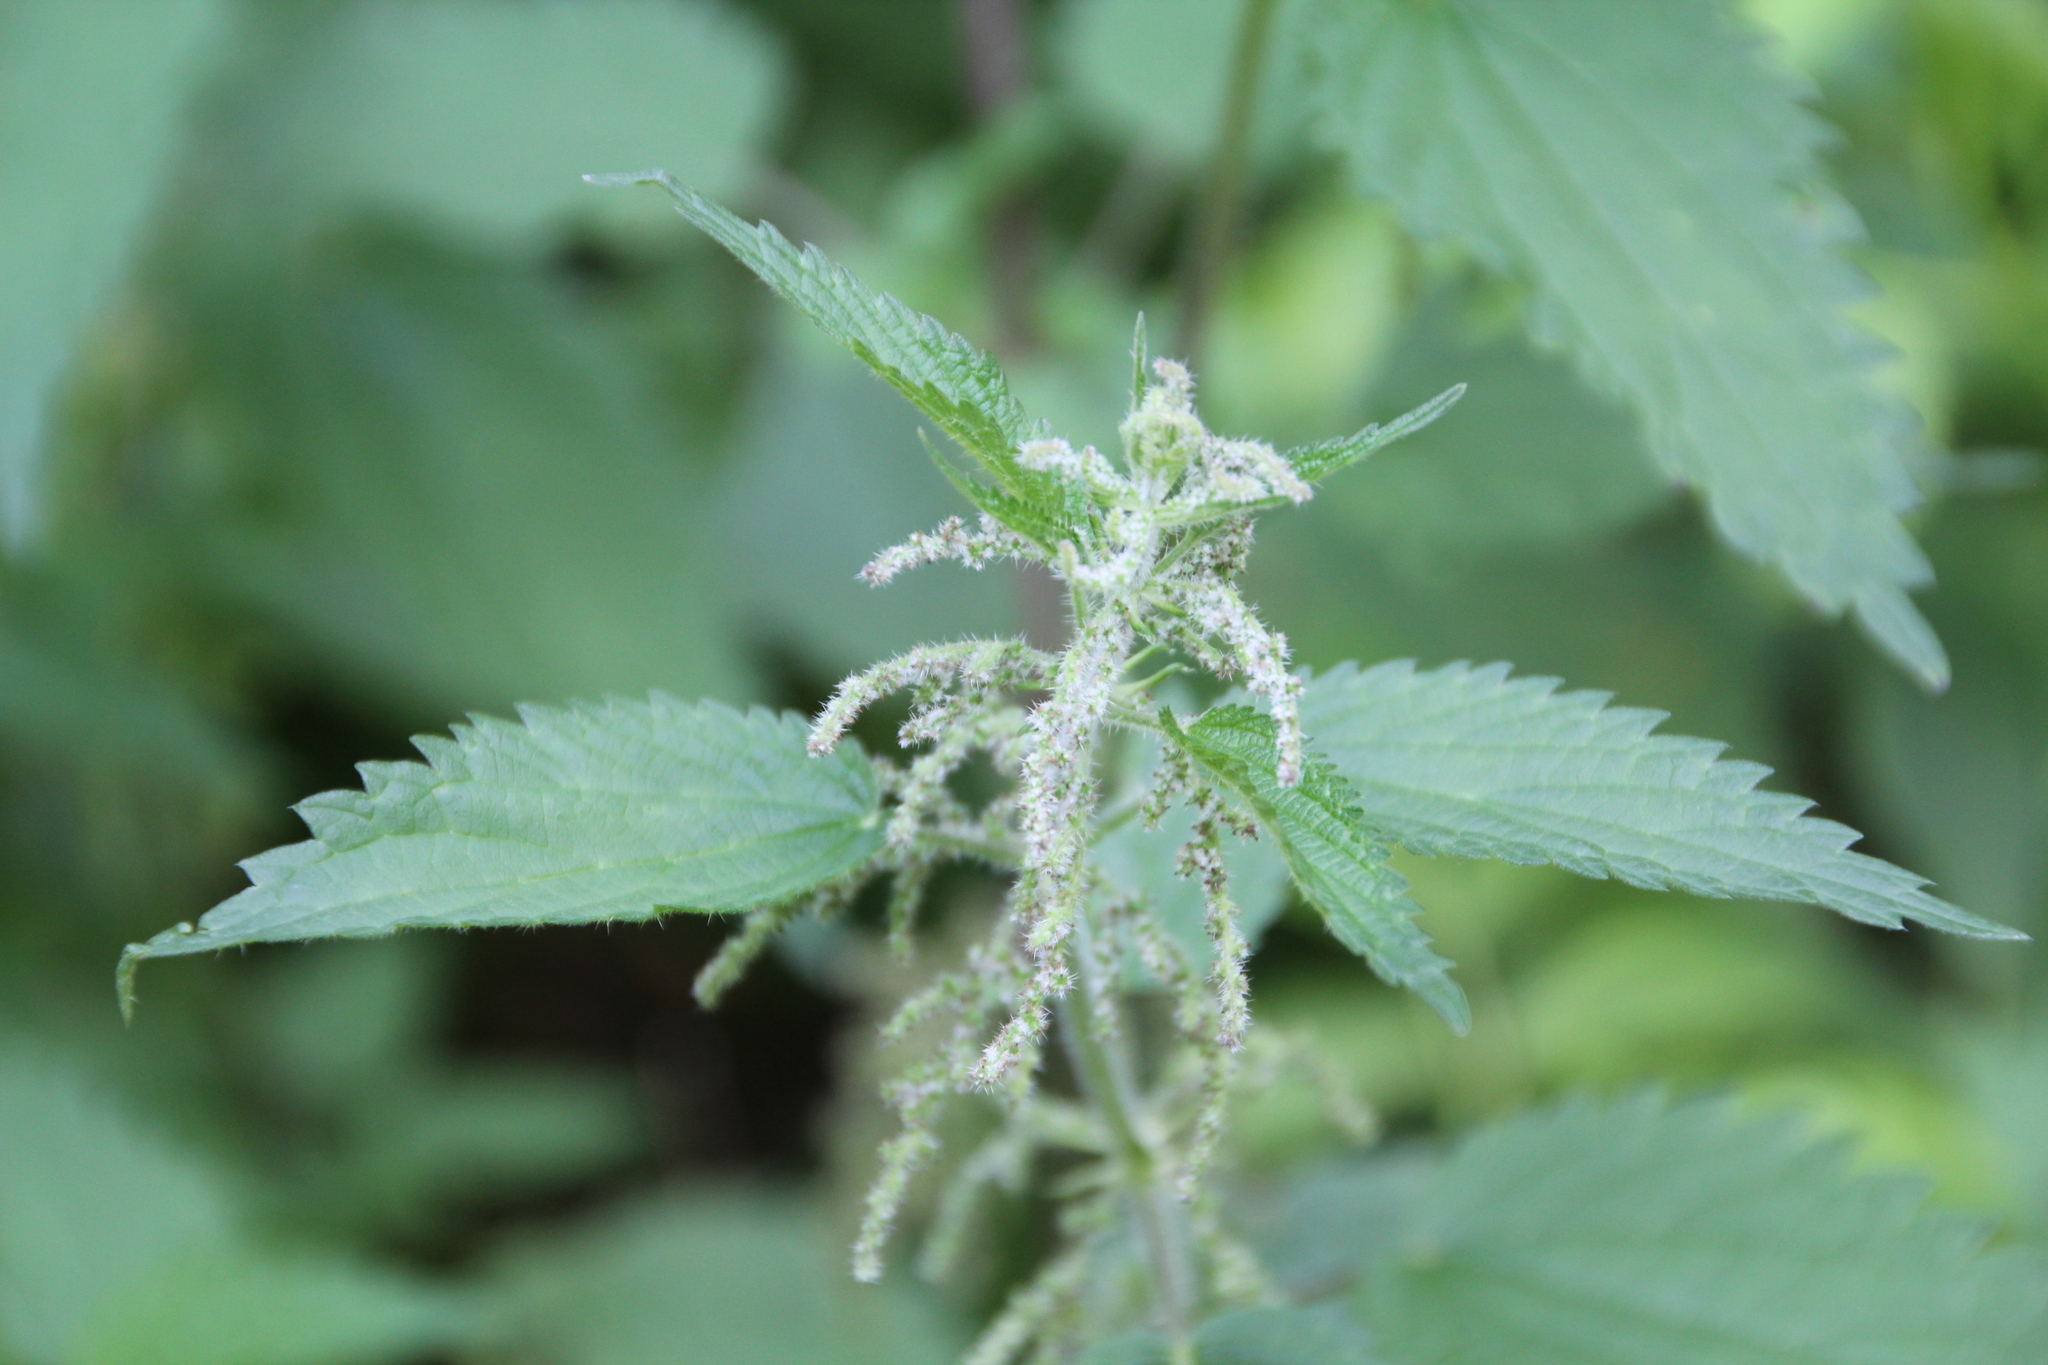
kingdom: Plantae
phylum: Tracheophyta
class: Magnoliopsida
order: Rosales
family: Urticaceae
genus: Urtica
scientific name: Urtica dioica
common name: Common nettle
